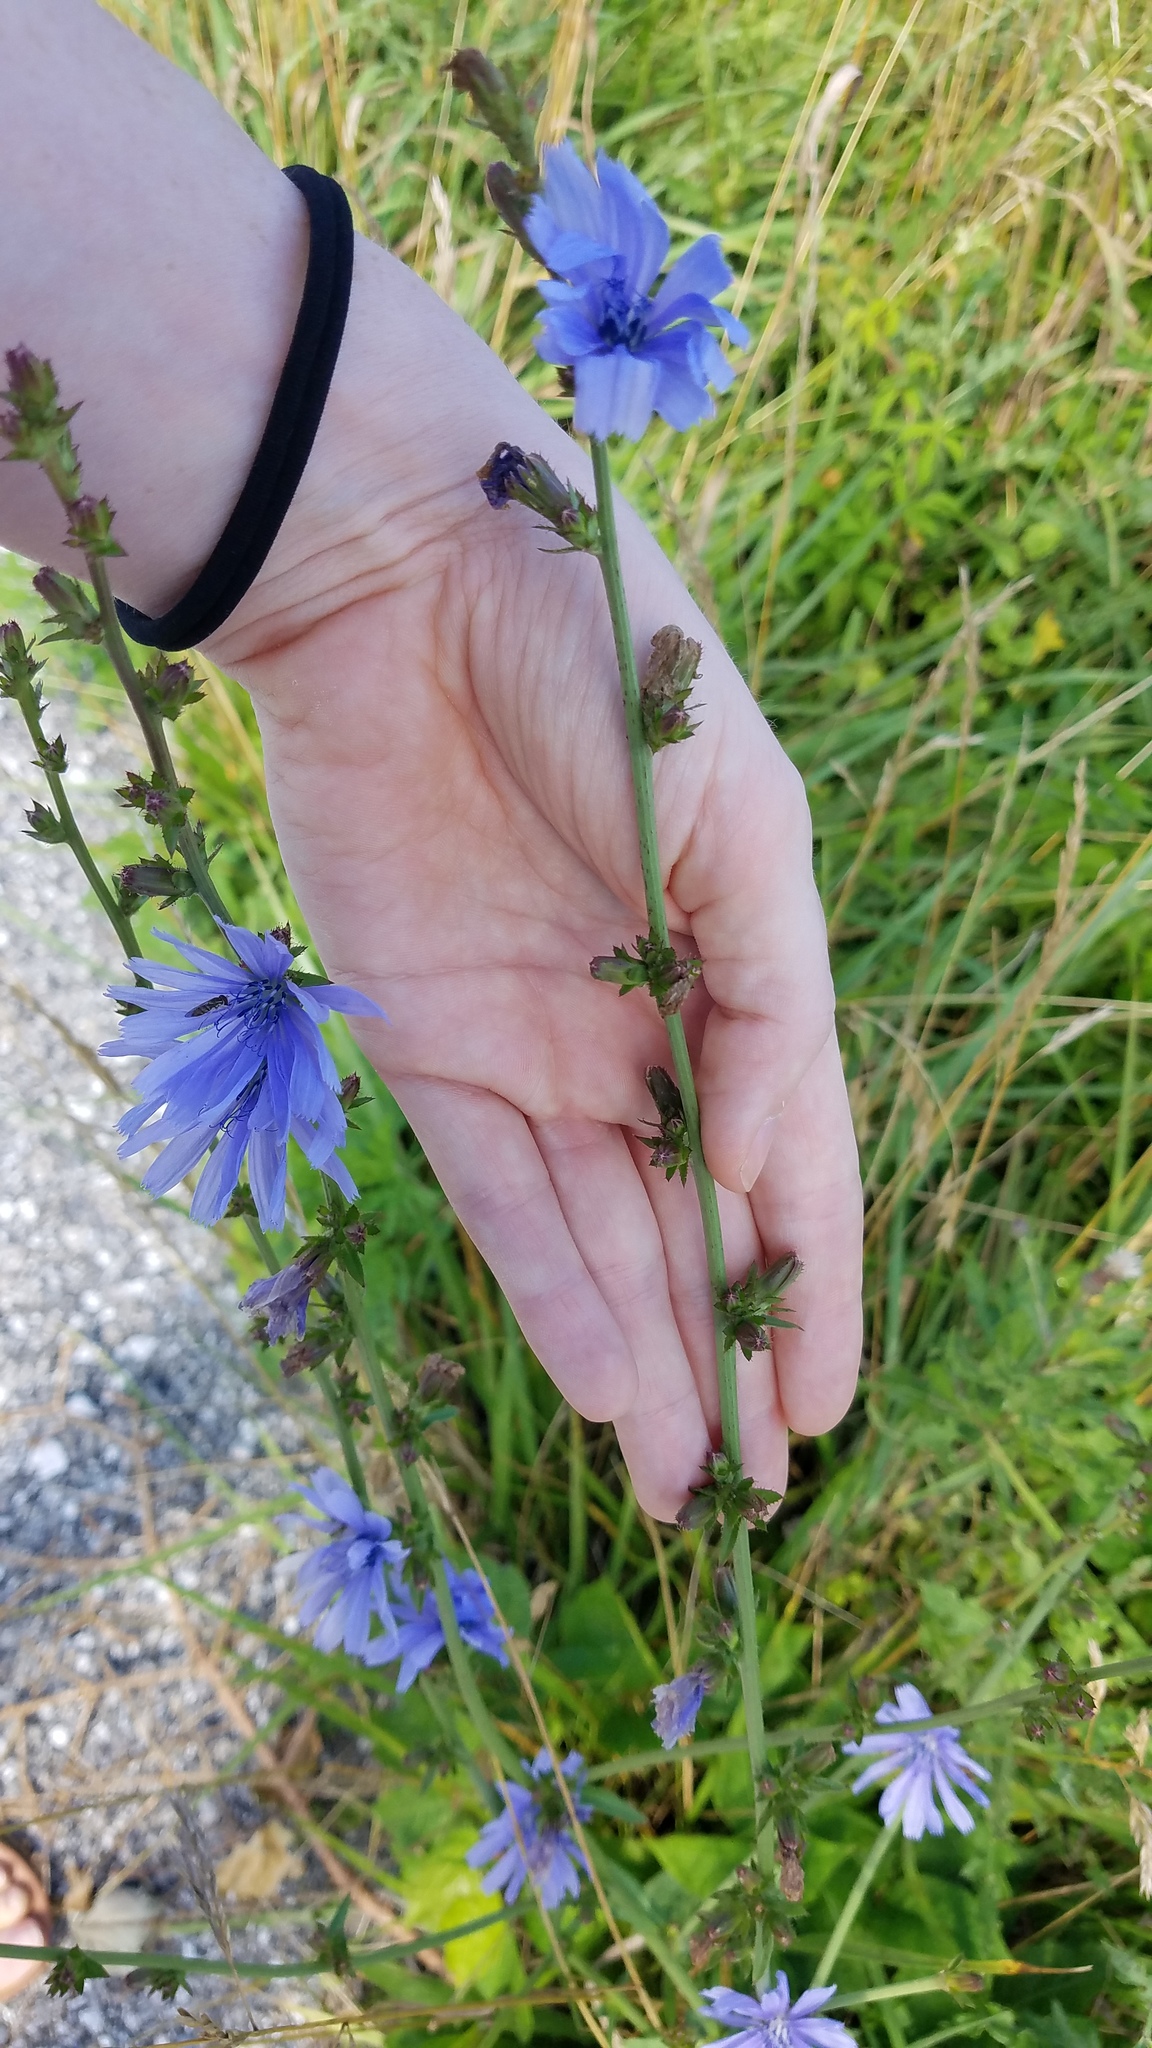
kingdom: Plantae
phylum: Tracheophyta
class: Magnoliopsida
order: Asterales
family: Asteraceae
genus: Cichorium
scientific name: Cichorium intybus
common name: Chicory
